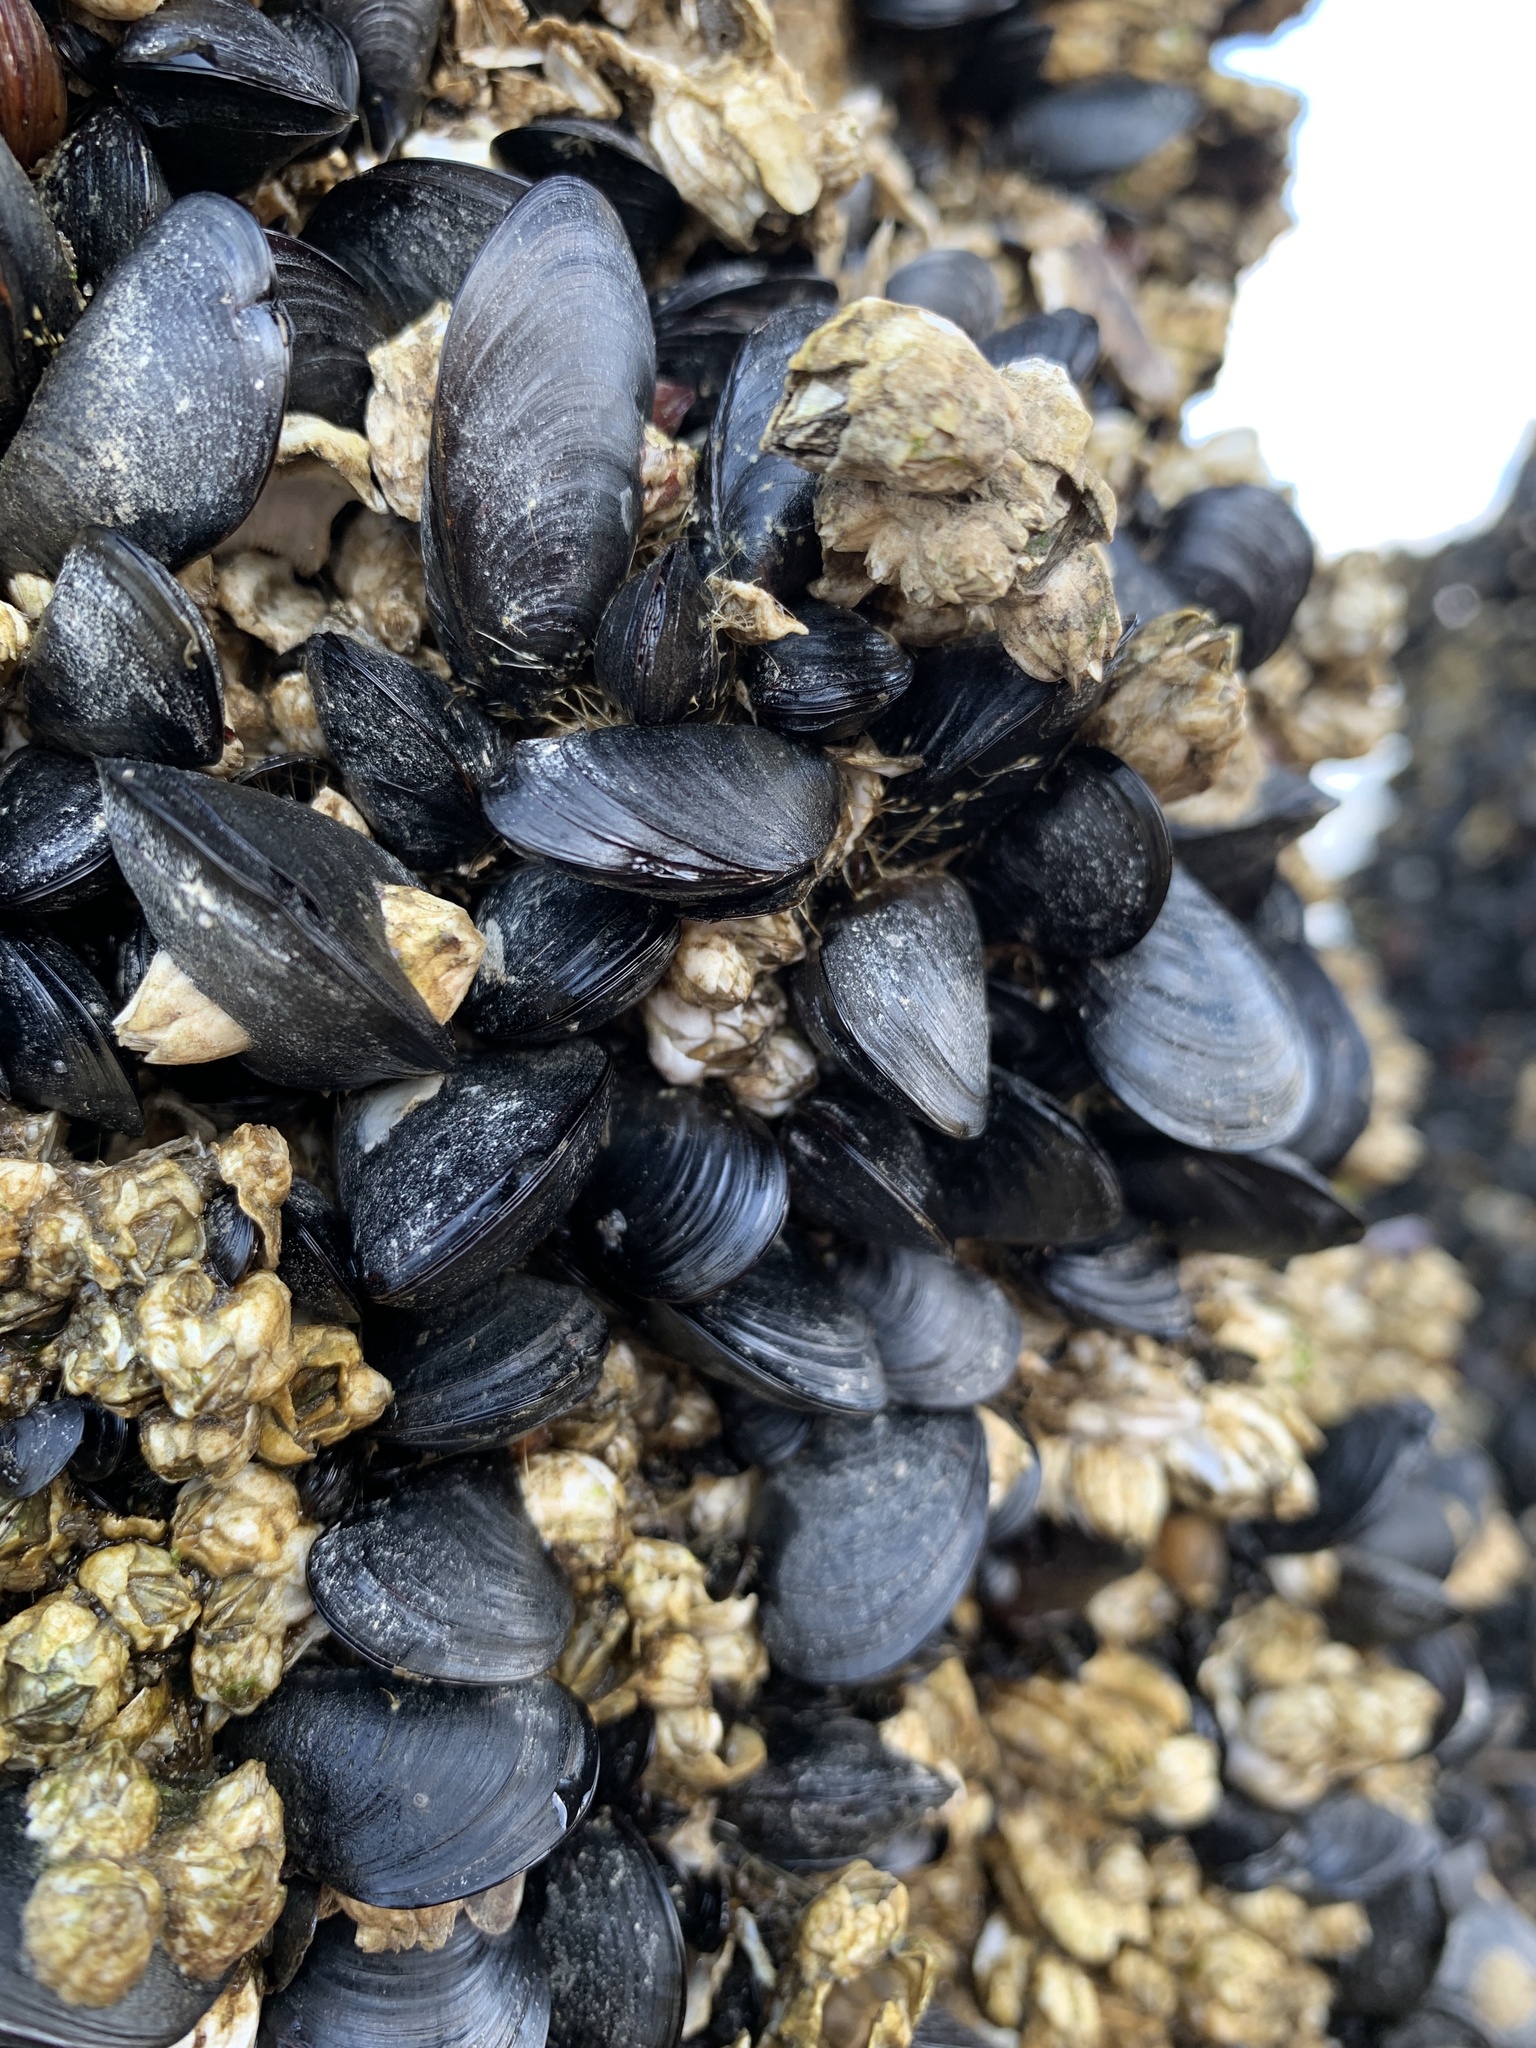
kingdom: Animalia
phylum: Mollusca
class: Bivalvia
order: Mytilida
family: Mytilidae
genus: Mytilus
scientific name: Mytilus
